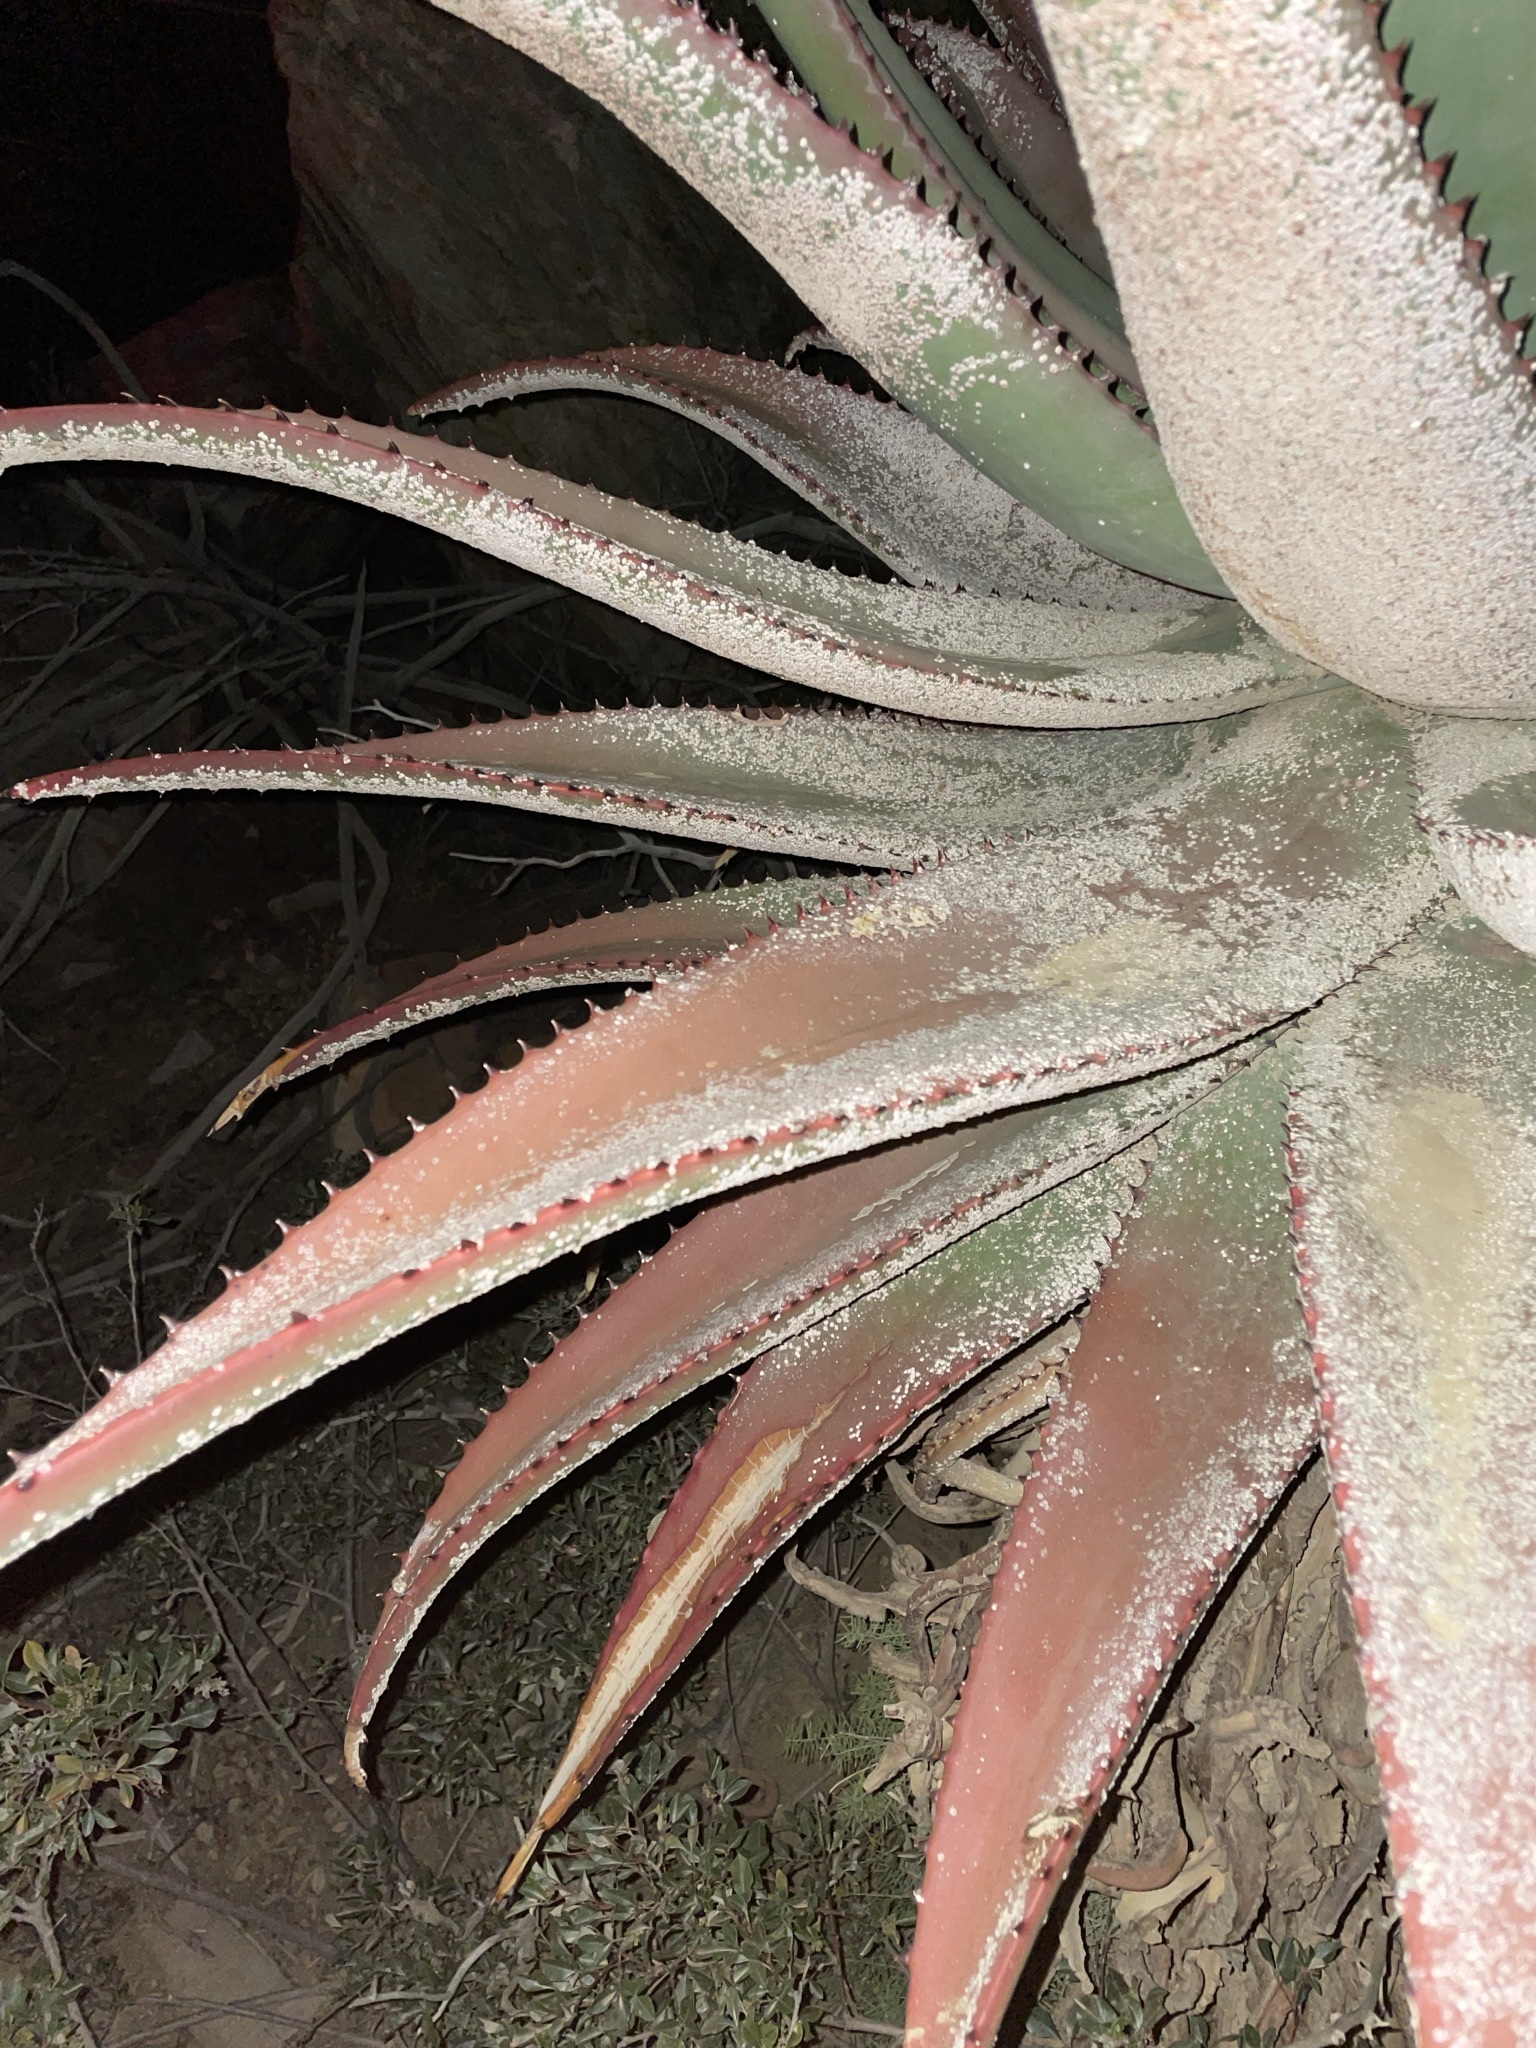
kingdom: Plantae
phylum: Tracheophyta
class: Liliopsida
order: Asparagales
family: Asphodelaceae
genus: Aloe
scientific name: Aloe ferox
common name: Bitter aloe
